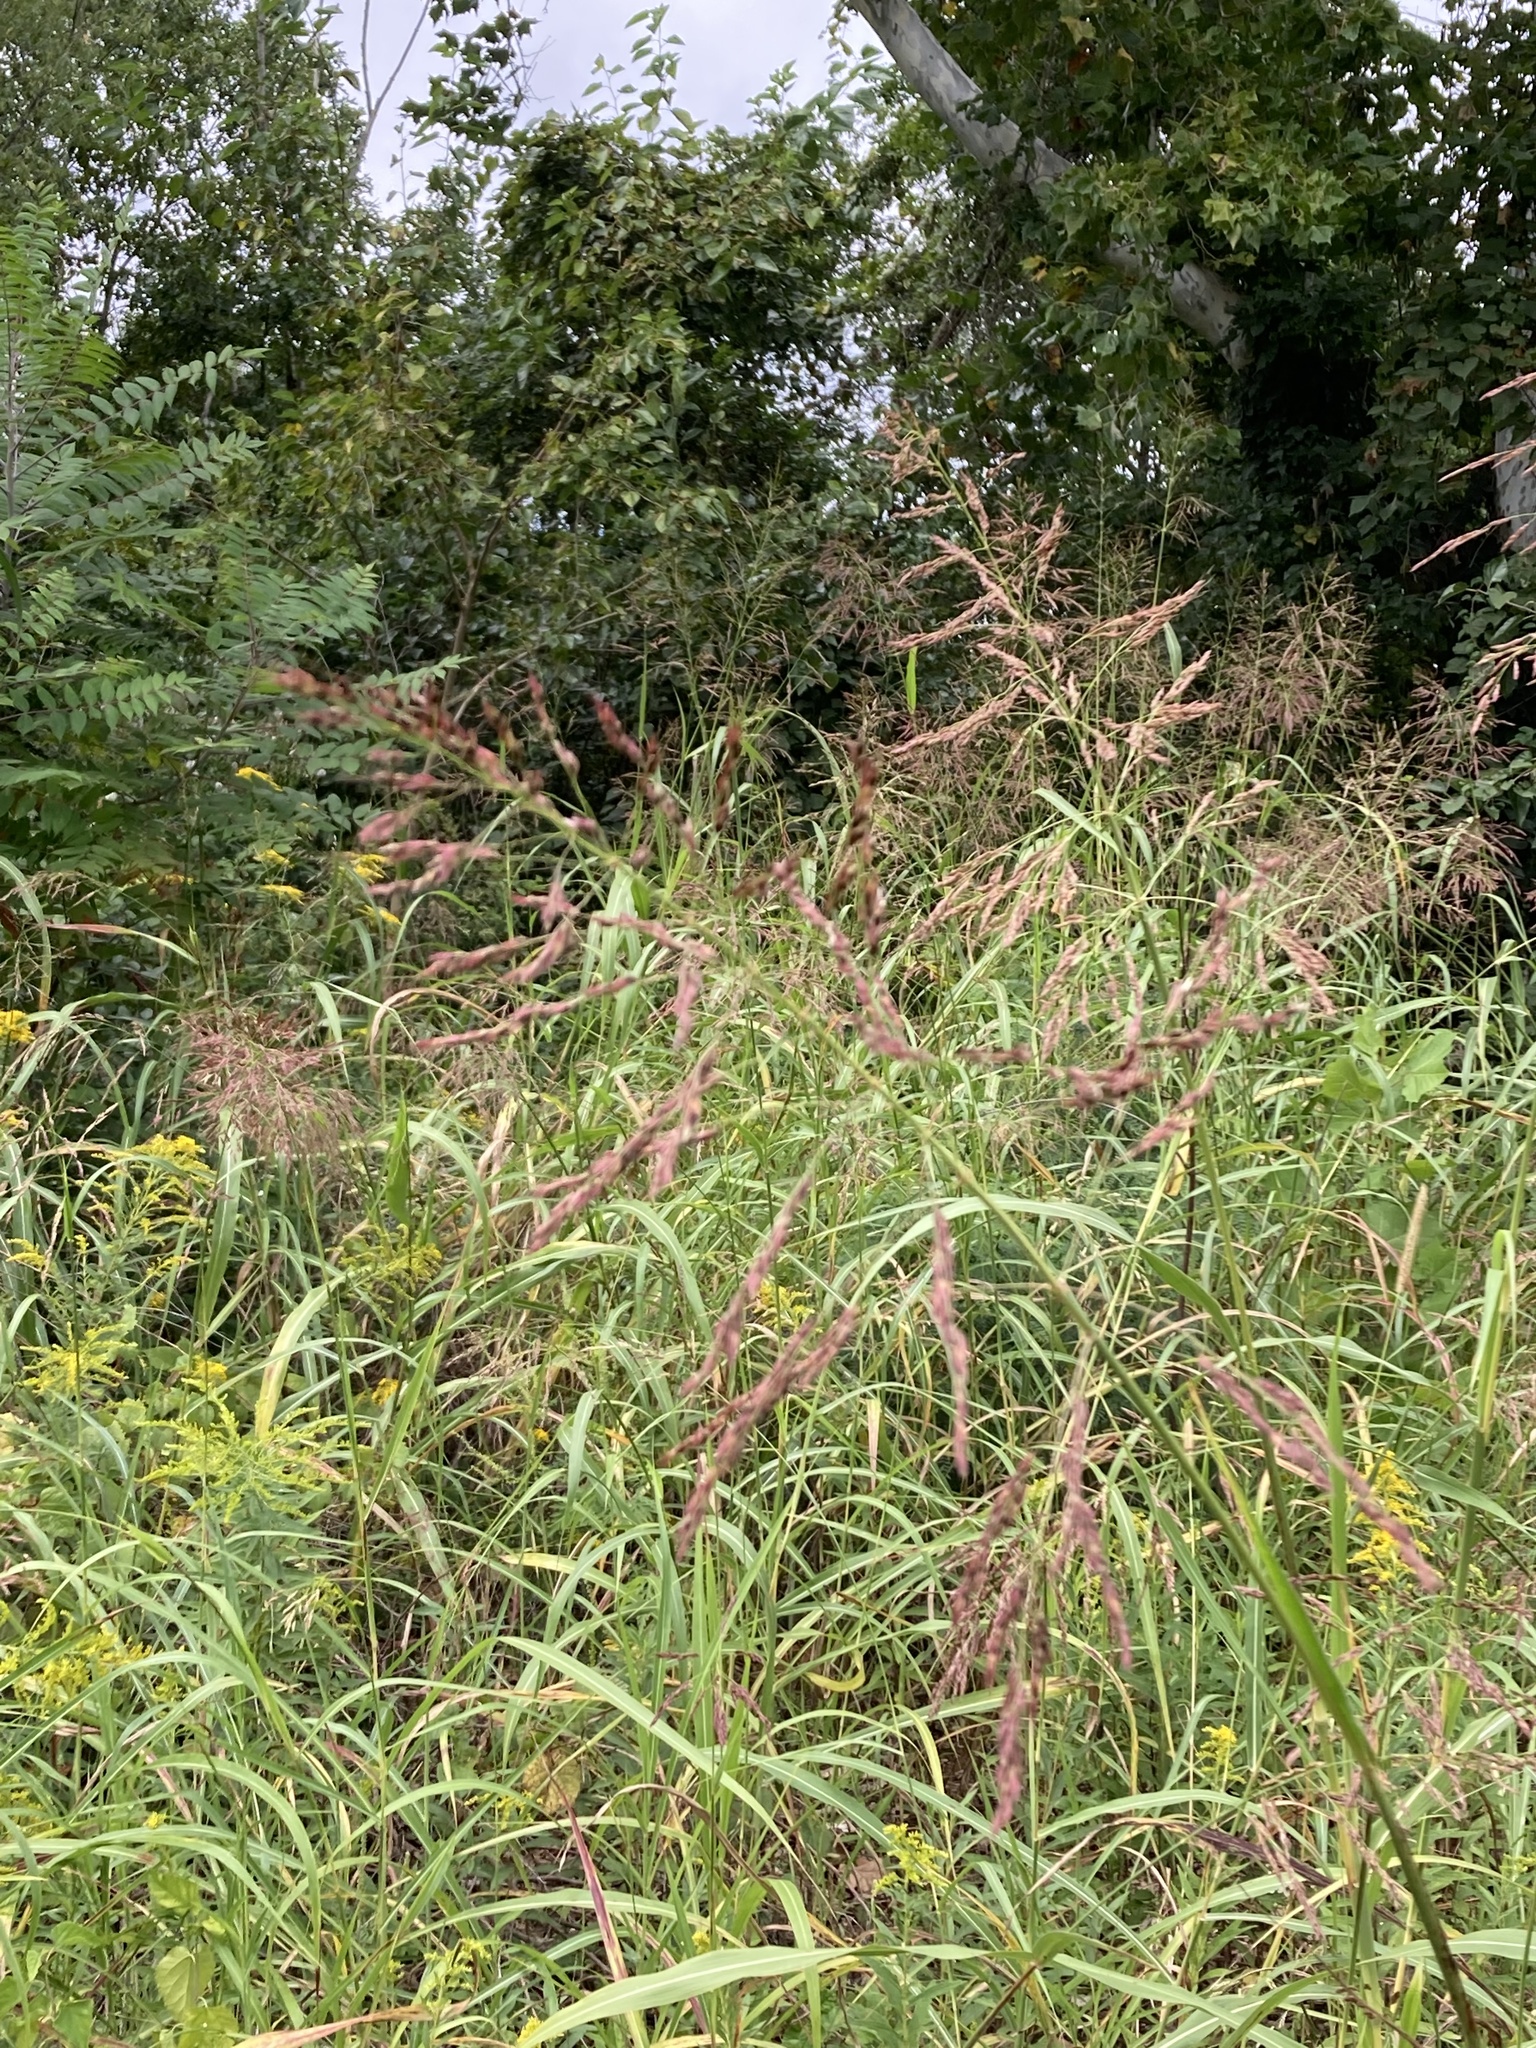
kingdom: Plantae
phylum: Tracheophyta
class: Liliopsida
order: Poales
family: Poaceae
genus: Sorghum
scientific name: Sorghum halepense
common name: Johnson-grass
